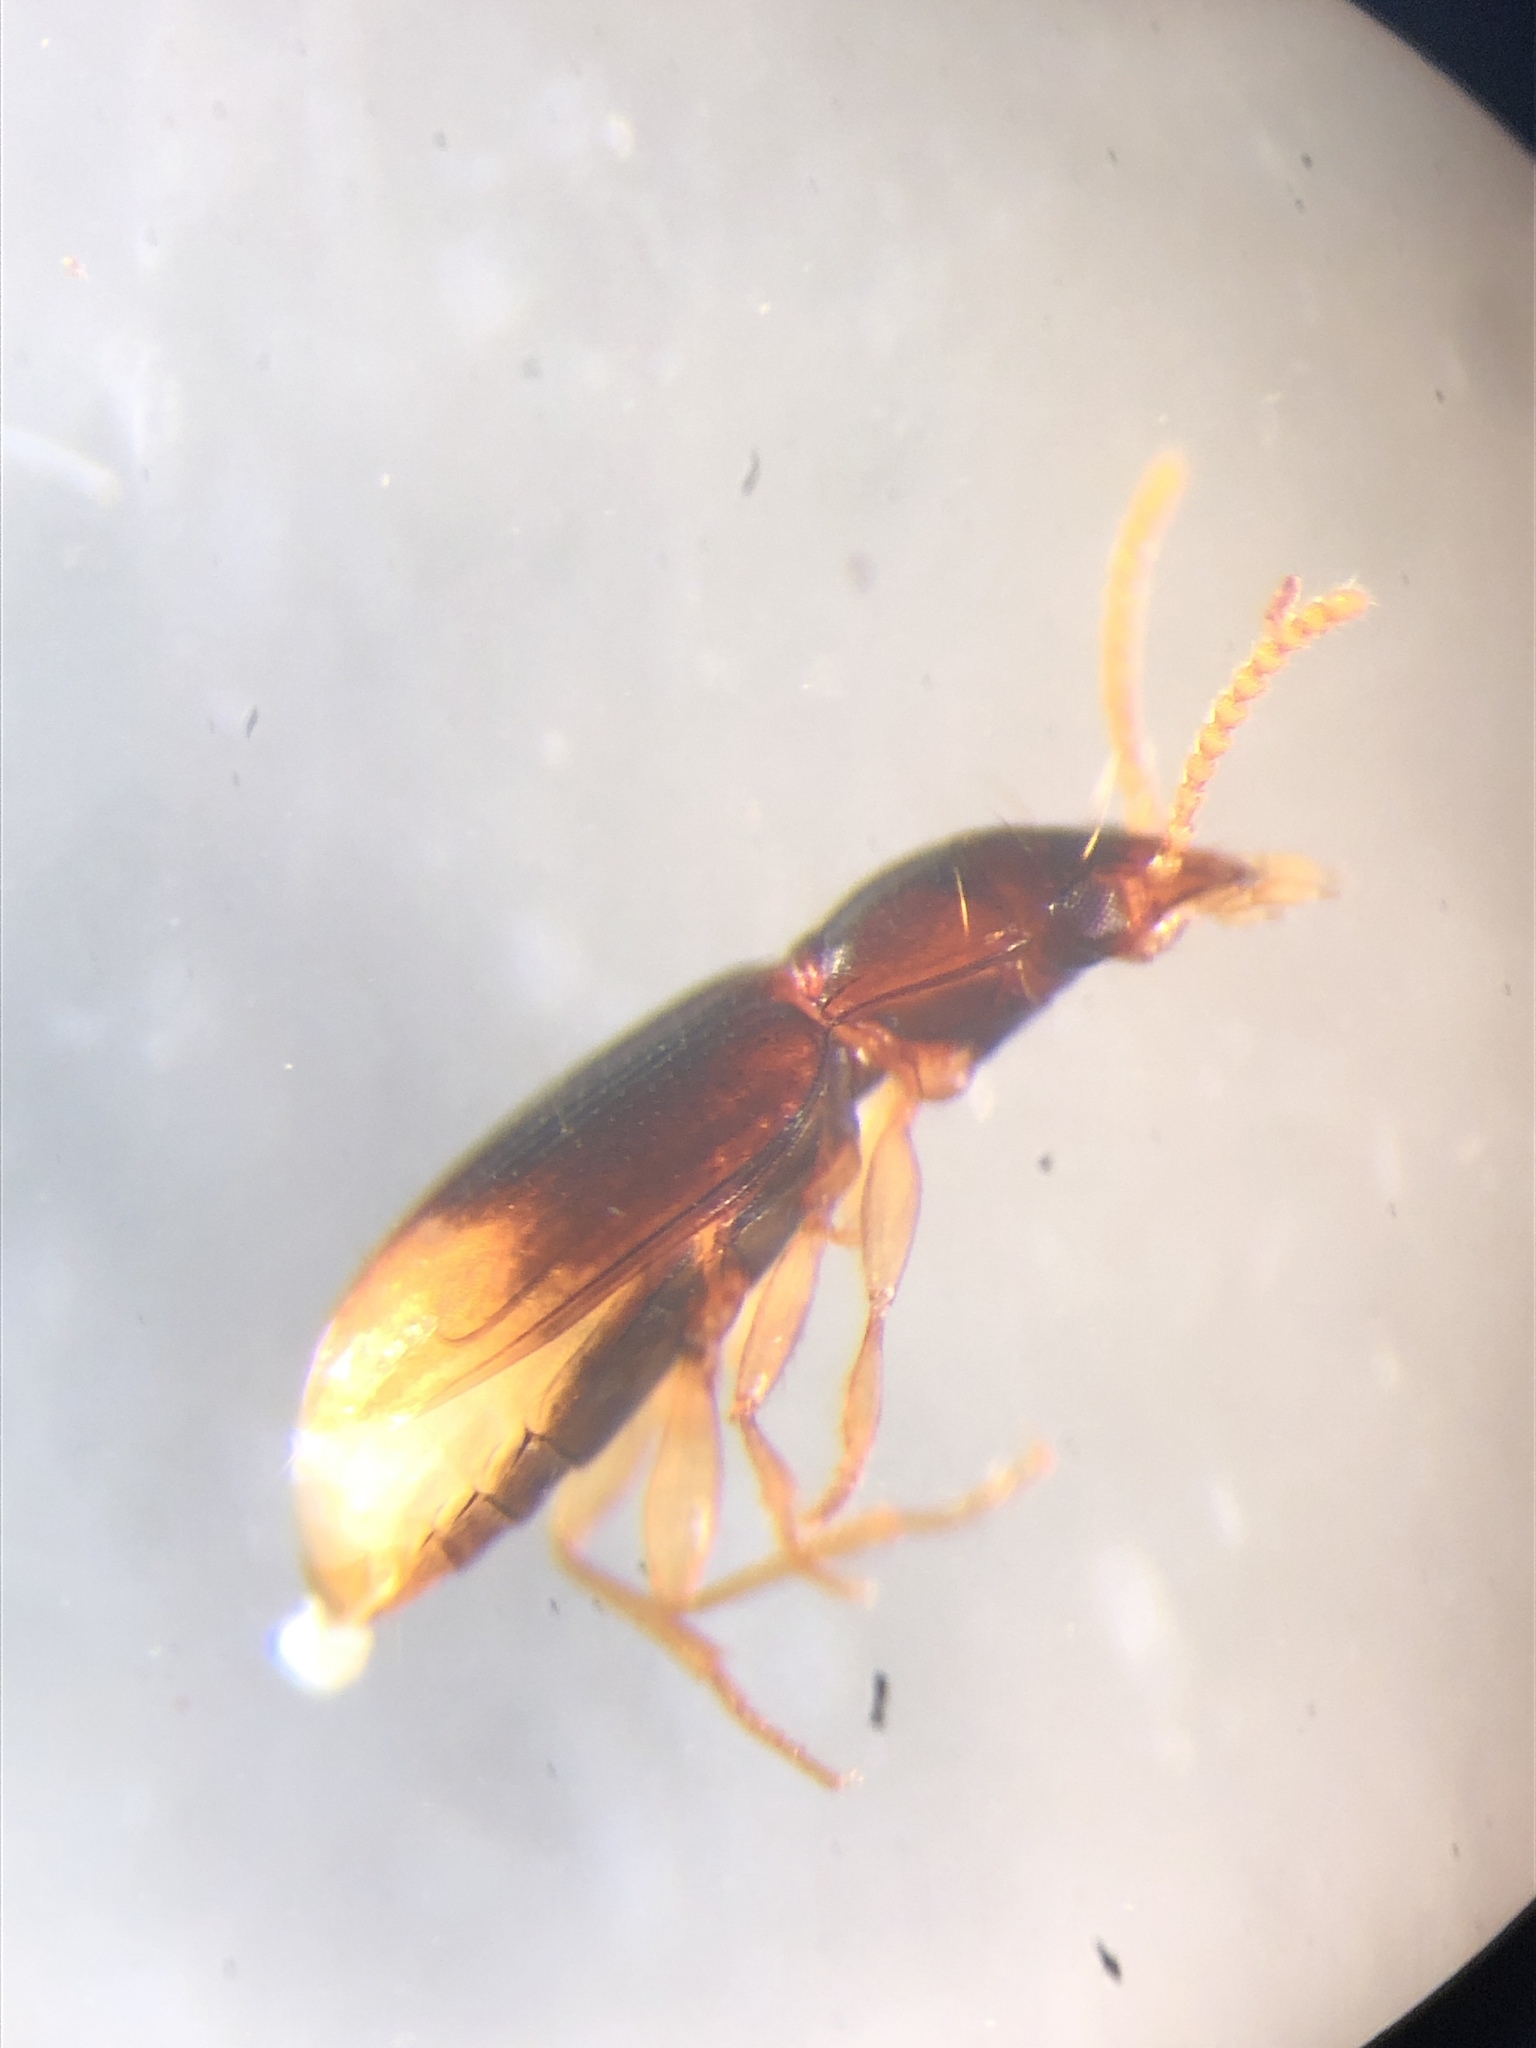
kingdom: Animalia
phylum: Arthropoda
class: Insecta
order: Coleoptera
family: Carabidae
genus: Mioptachys
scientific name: Mioptachys flavicauda
